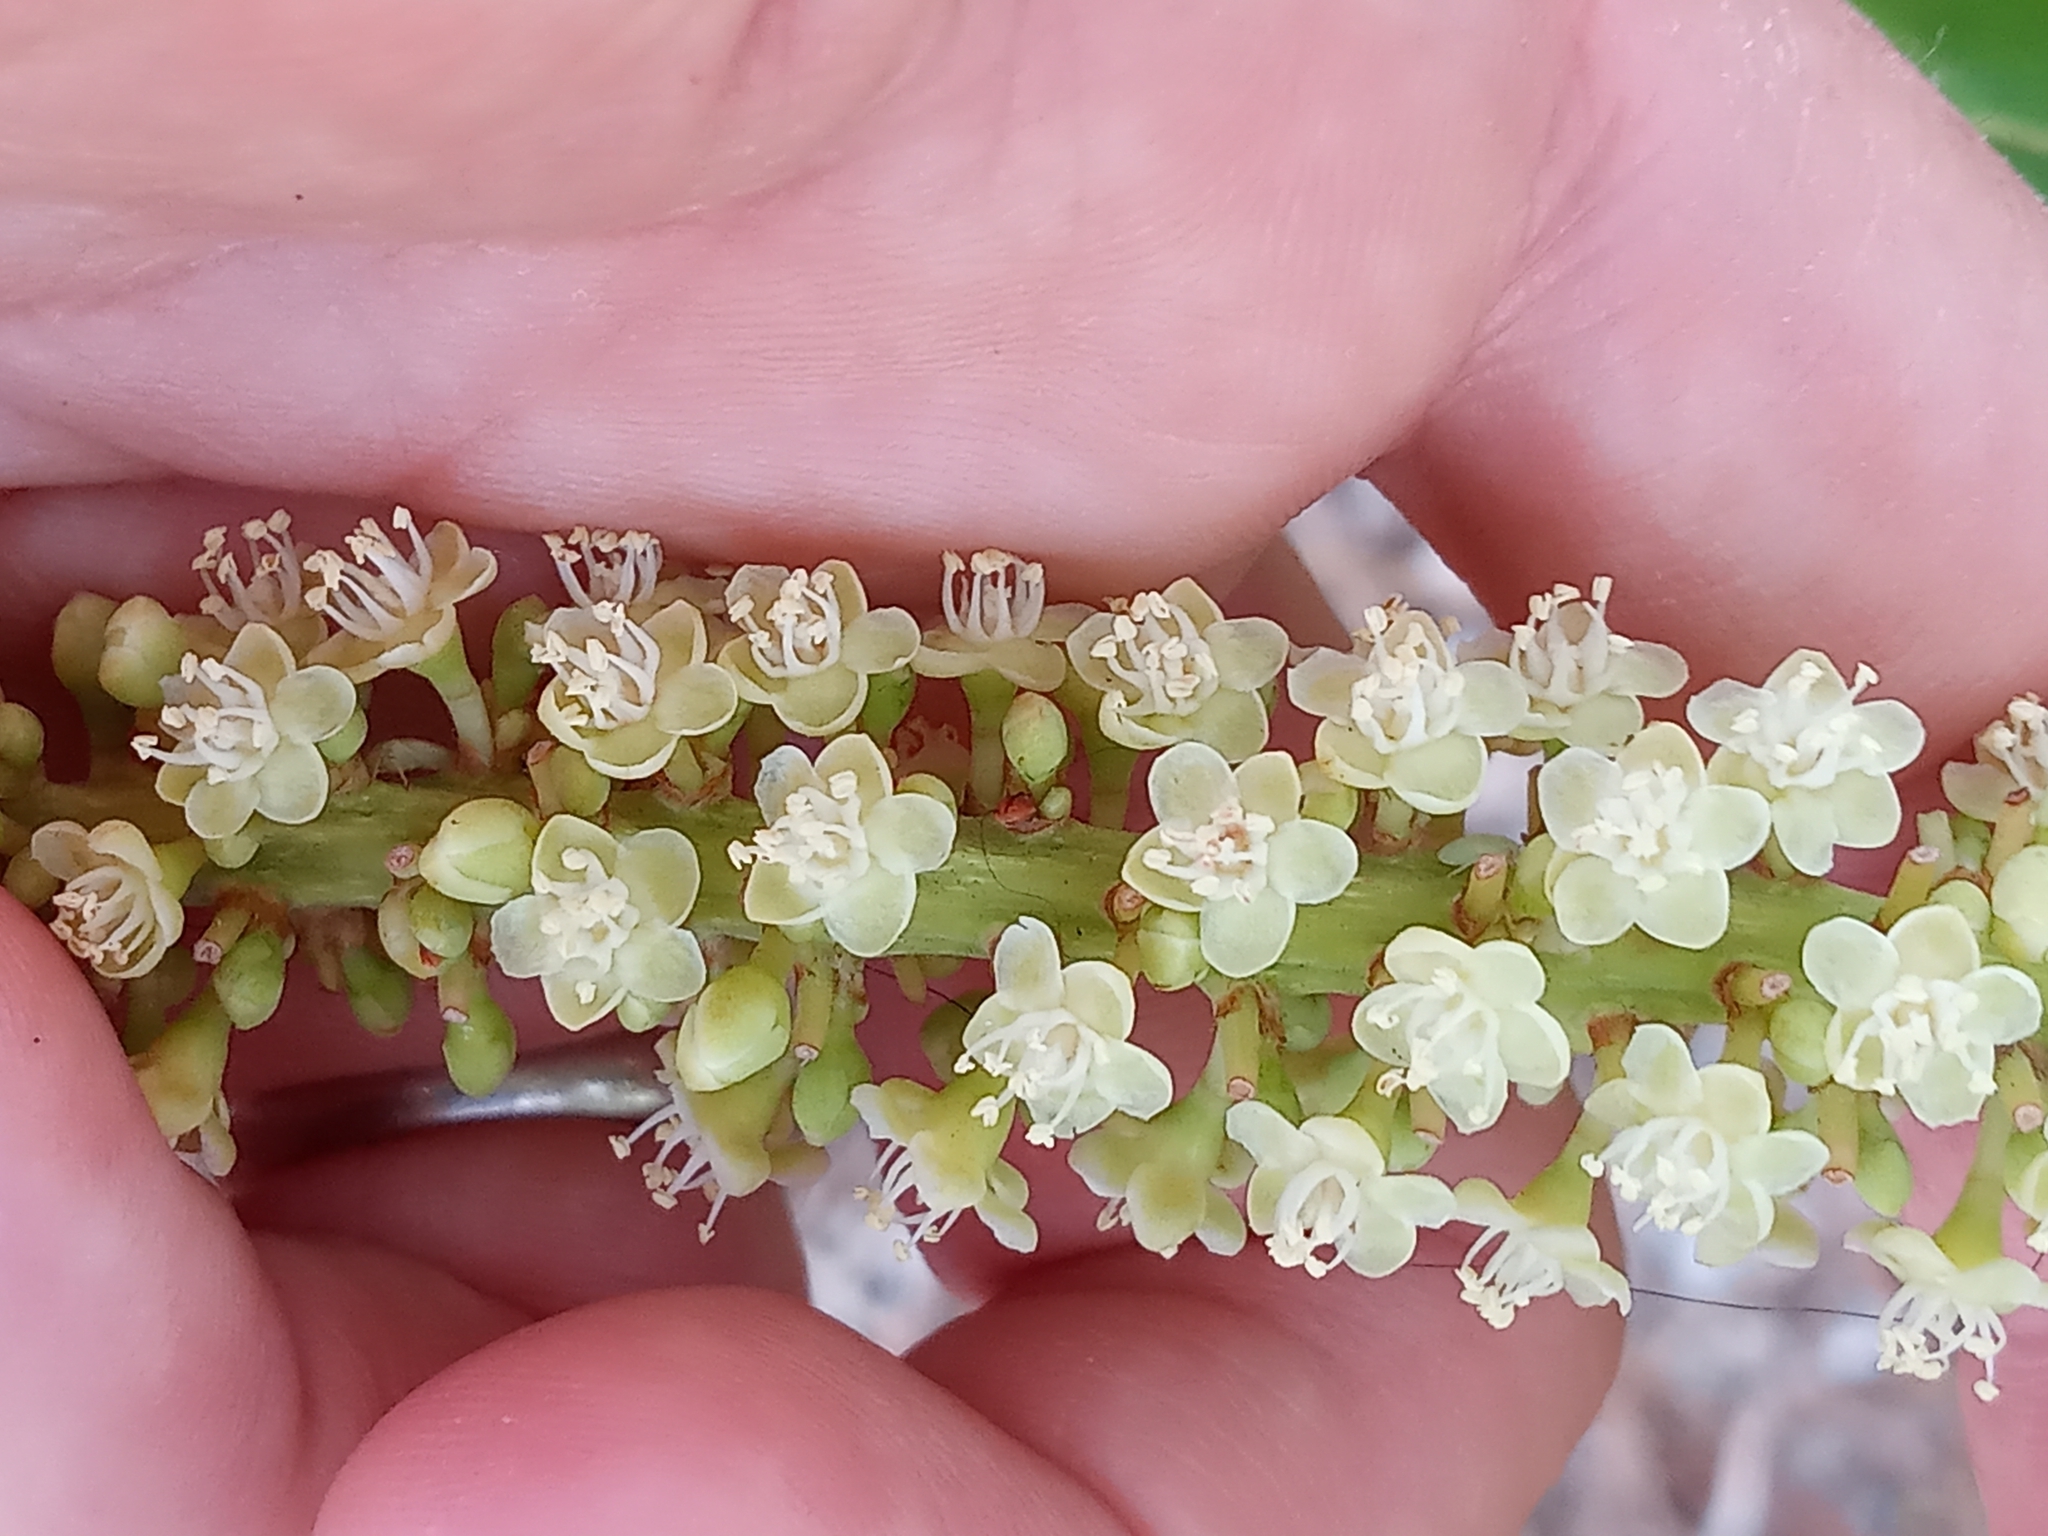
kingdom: Plantae
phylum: Tracheophyta
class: Magnoliopsida
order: Caryophyllales
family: Polygonaceae
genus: Coccoloba
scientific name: Coccoloba uvifera
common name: Seagrape
